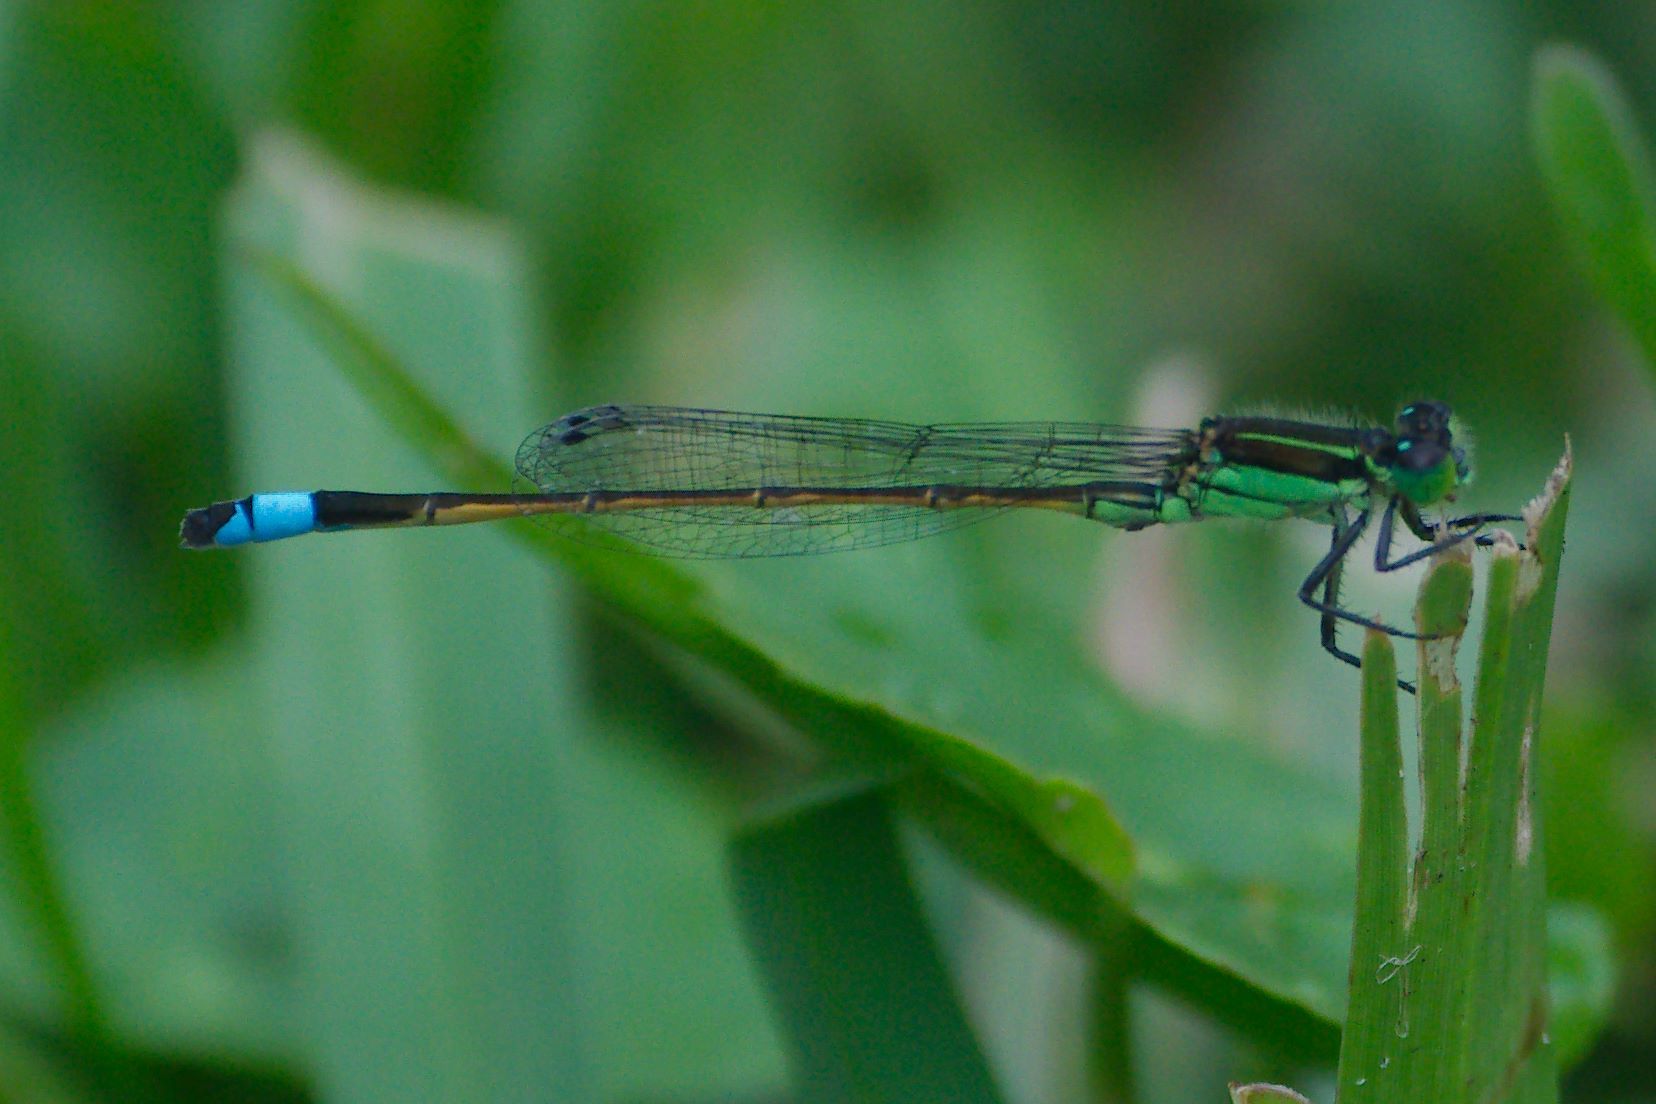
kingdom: Animalia
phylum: Arthropoda
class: Insecta
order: Odonata
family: Coenagrionidae
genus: Ischnura
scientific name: Ischnura ramburii
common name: Rambur's forktail
